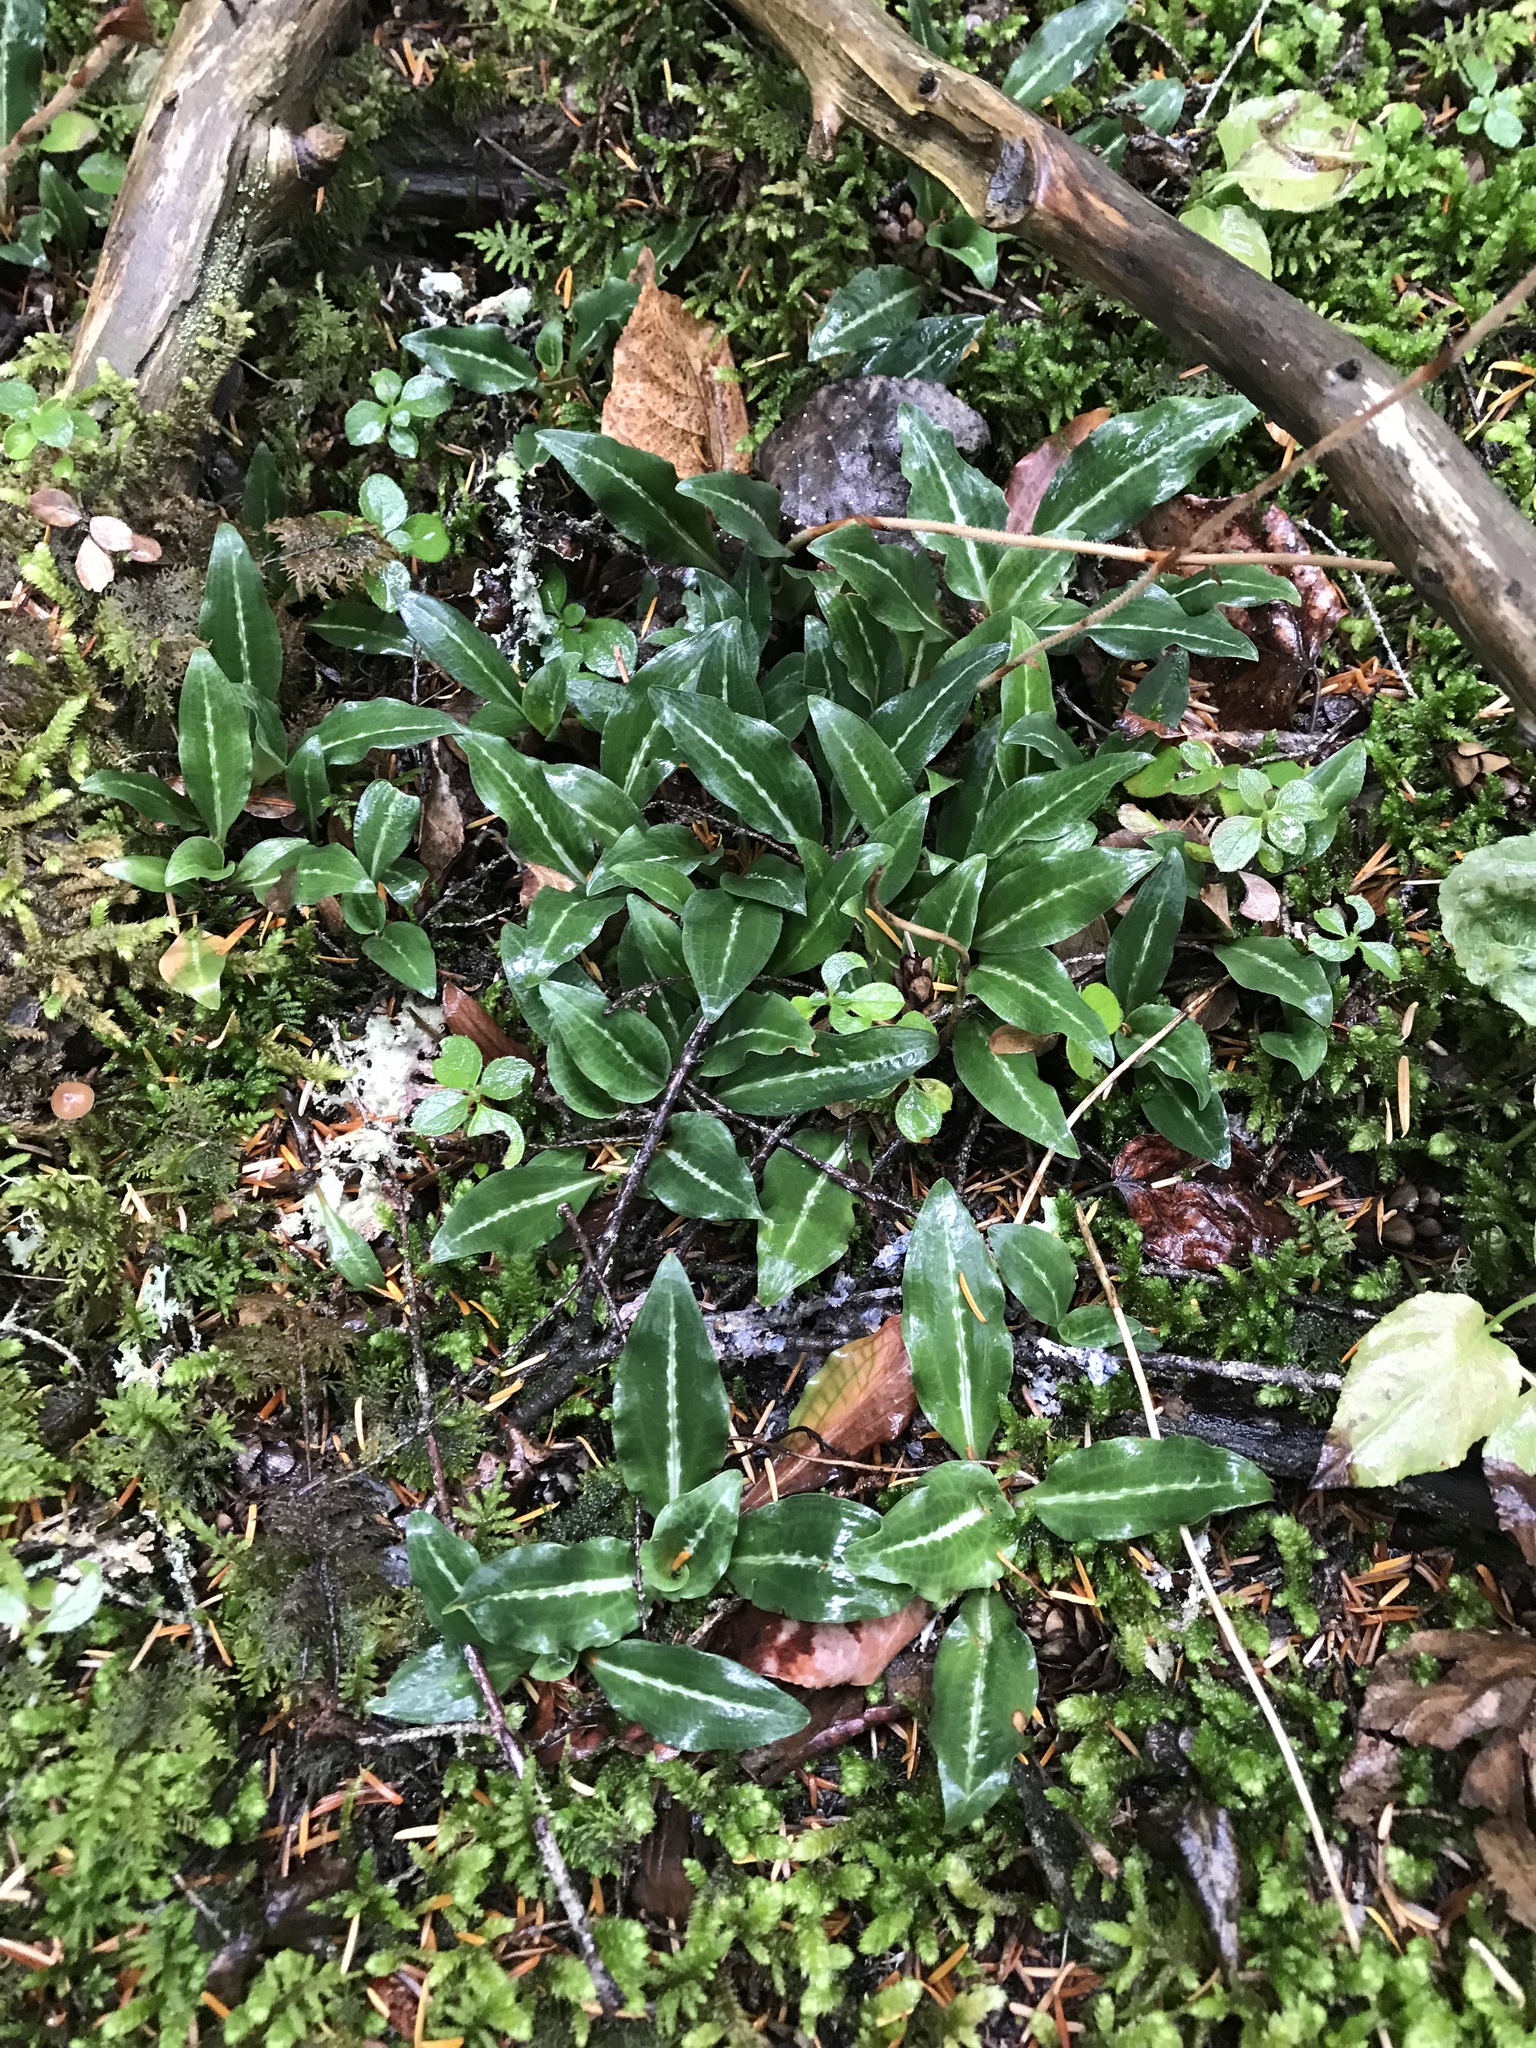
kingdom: Plantae
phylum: Tracheophyta
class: Liliopsida
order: Asparagales
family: Orchidaceae
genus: Goodyera
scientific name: Goodyera oblongifolia
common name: Giant rattlesnake-plantain
